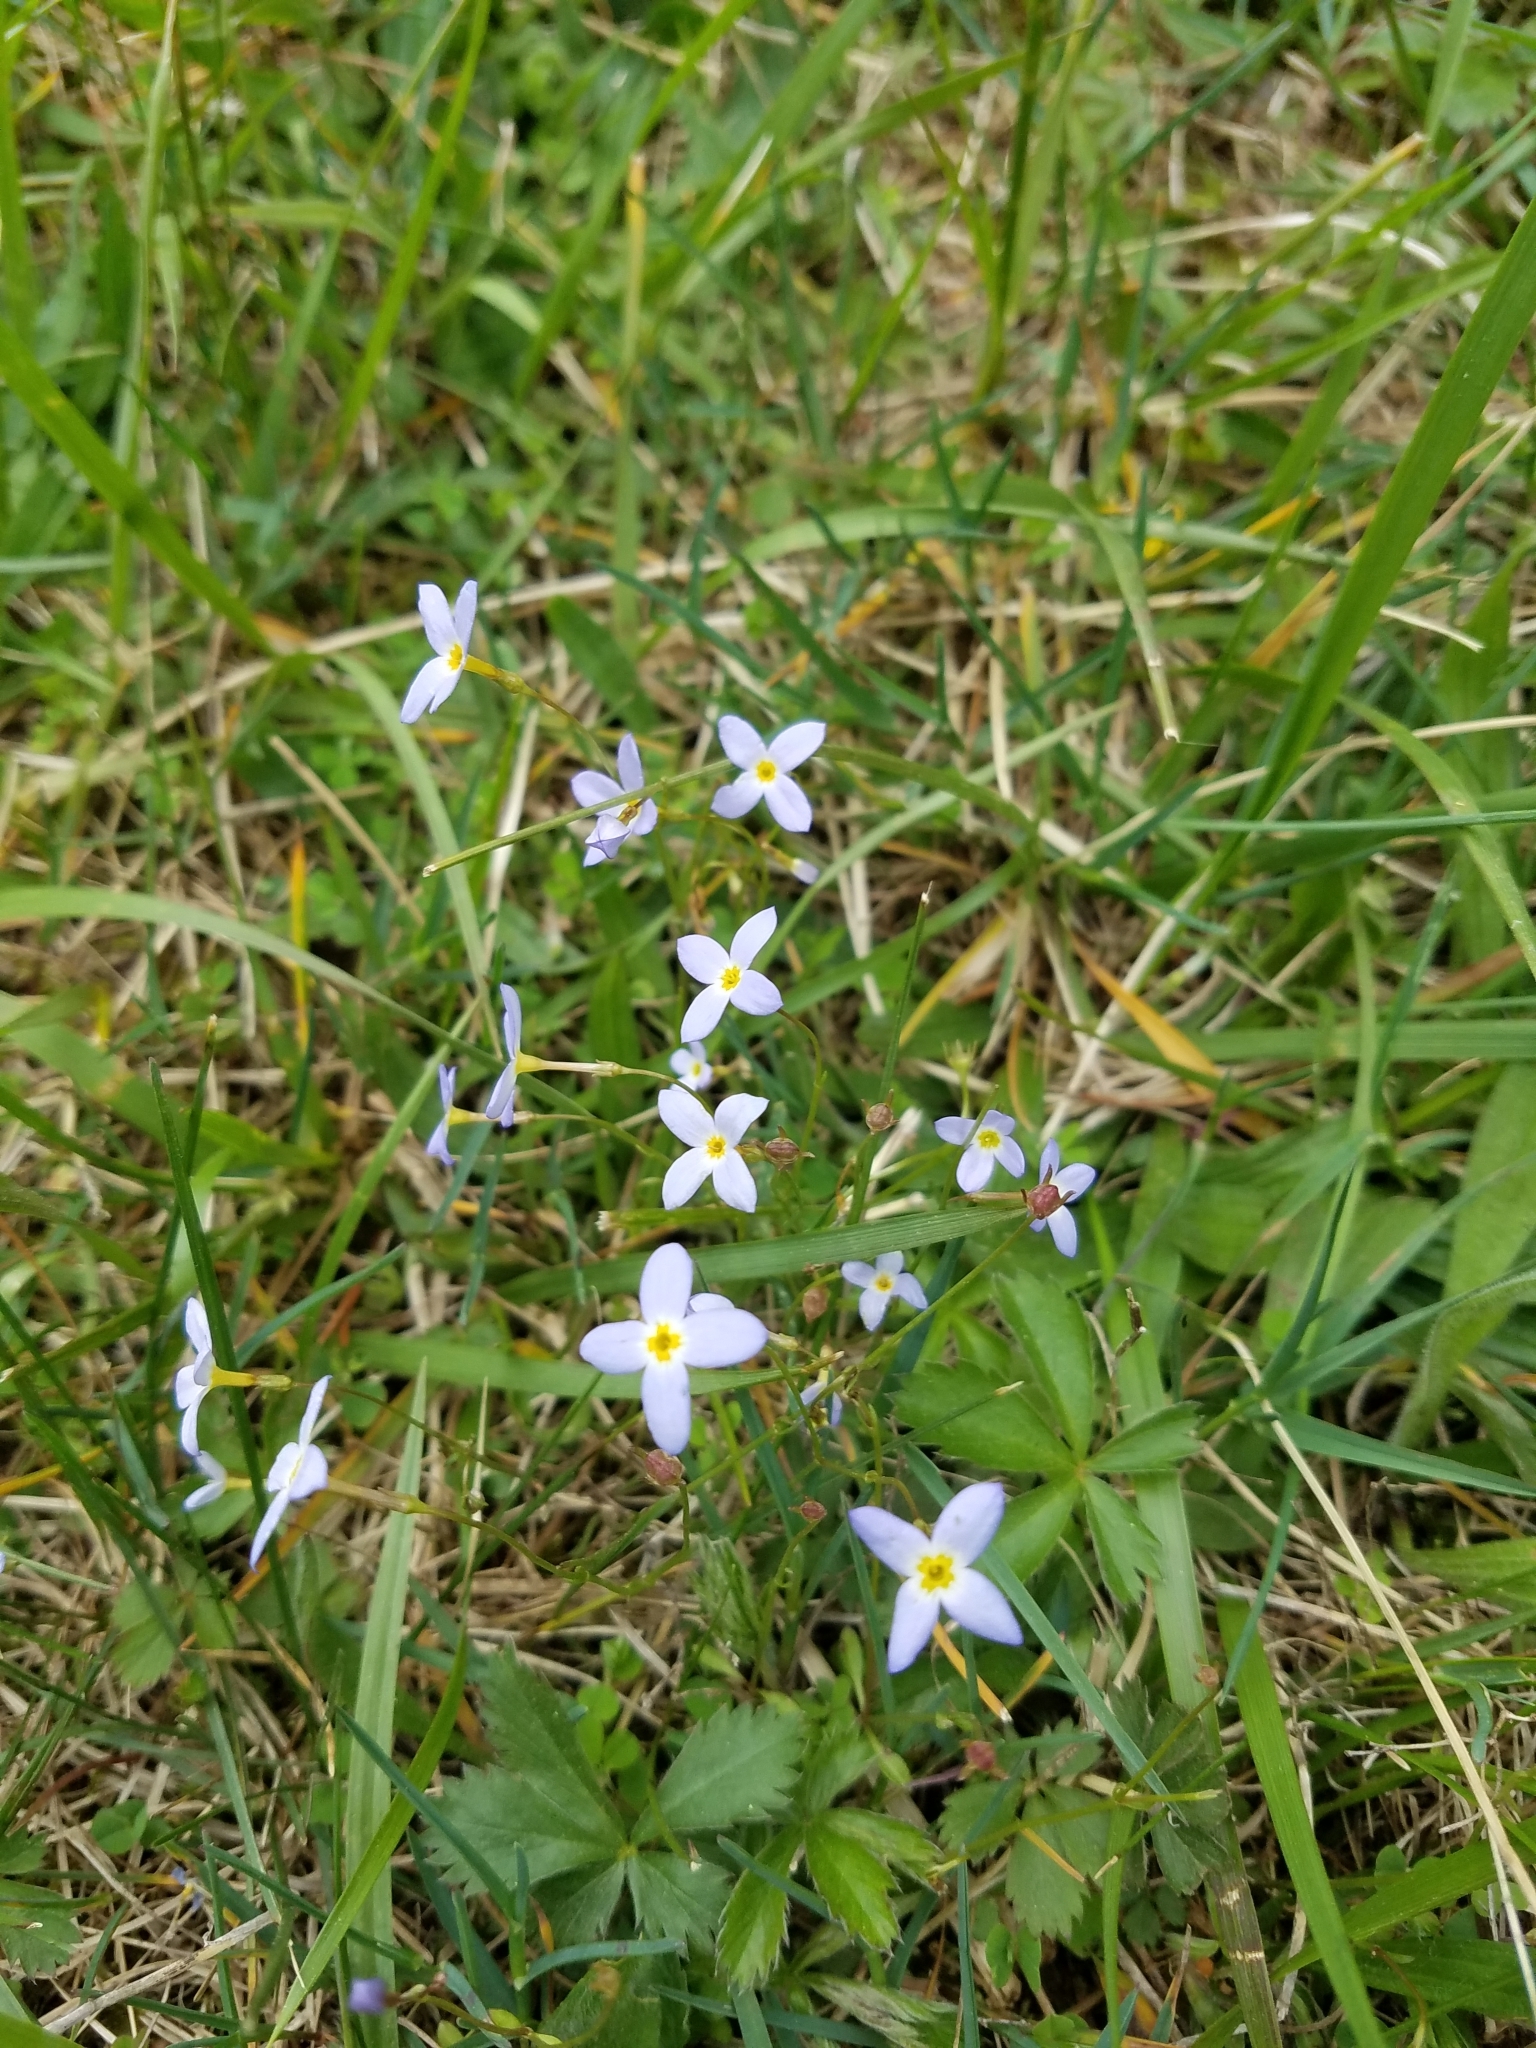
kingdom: Plantae
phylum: Tracheophyta
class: Magnoliopsida
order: Gentianales
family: Rubiaceae
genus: Houstonia
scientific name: Houstonia caerulea
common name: Bluets
